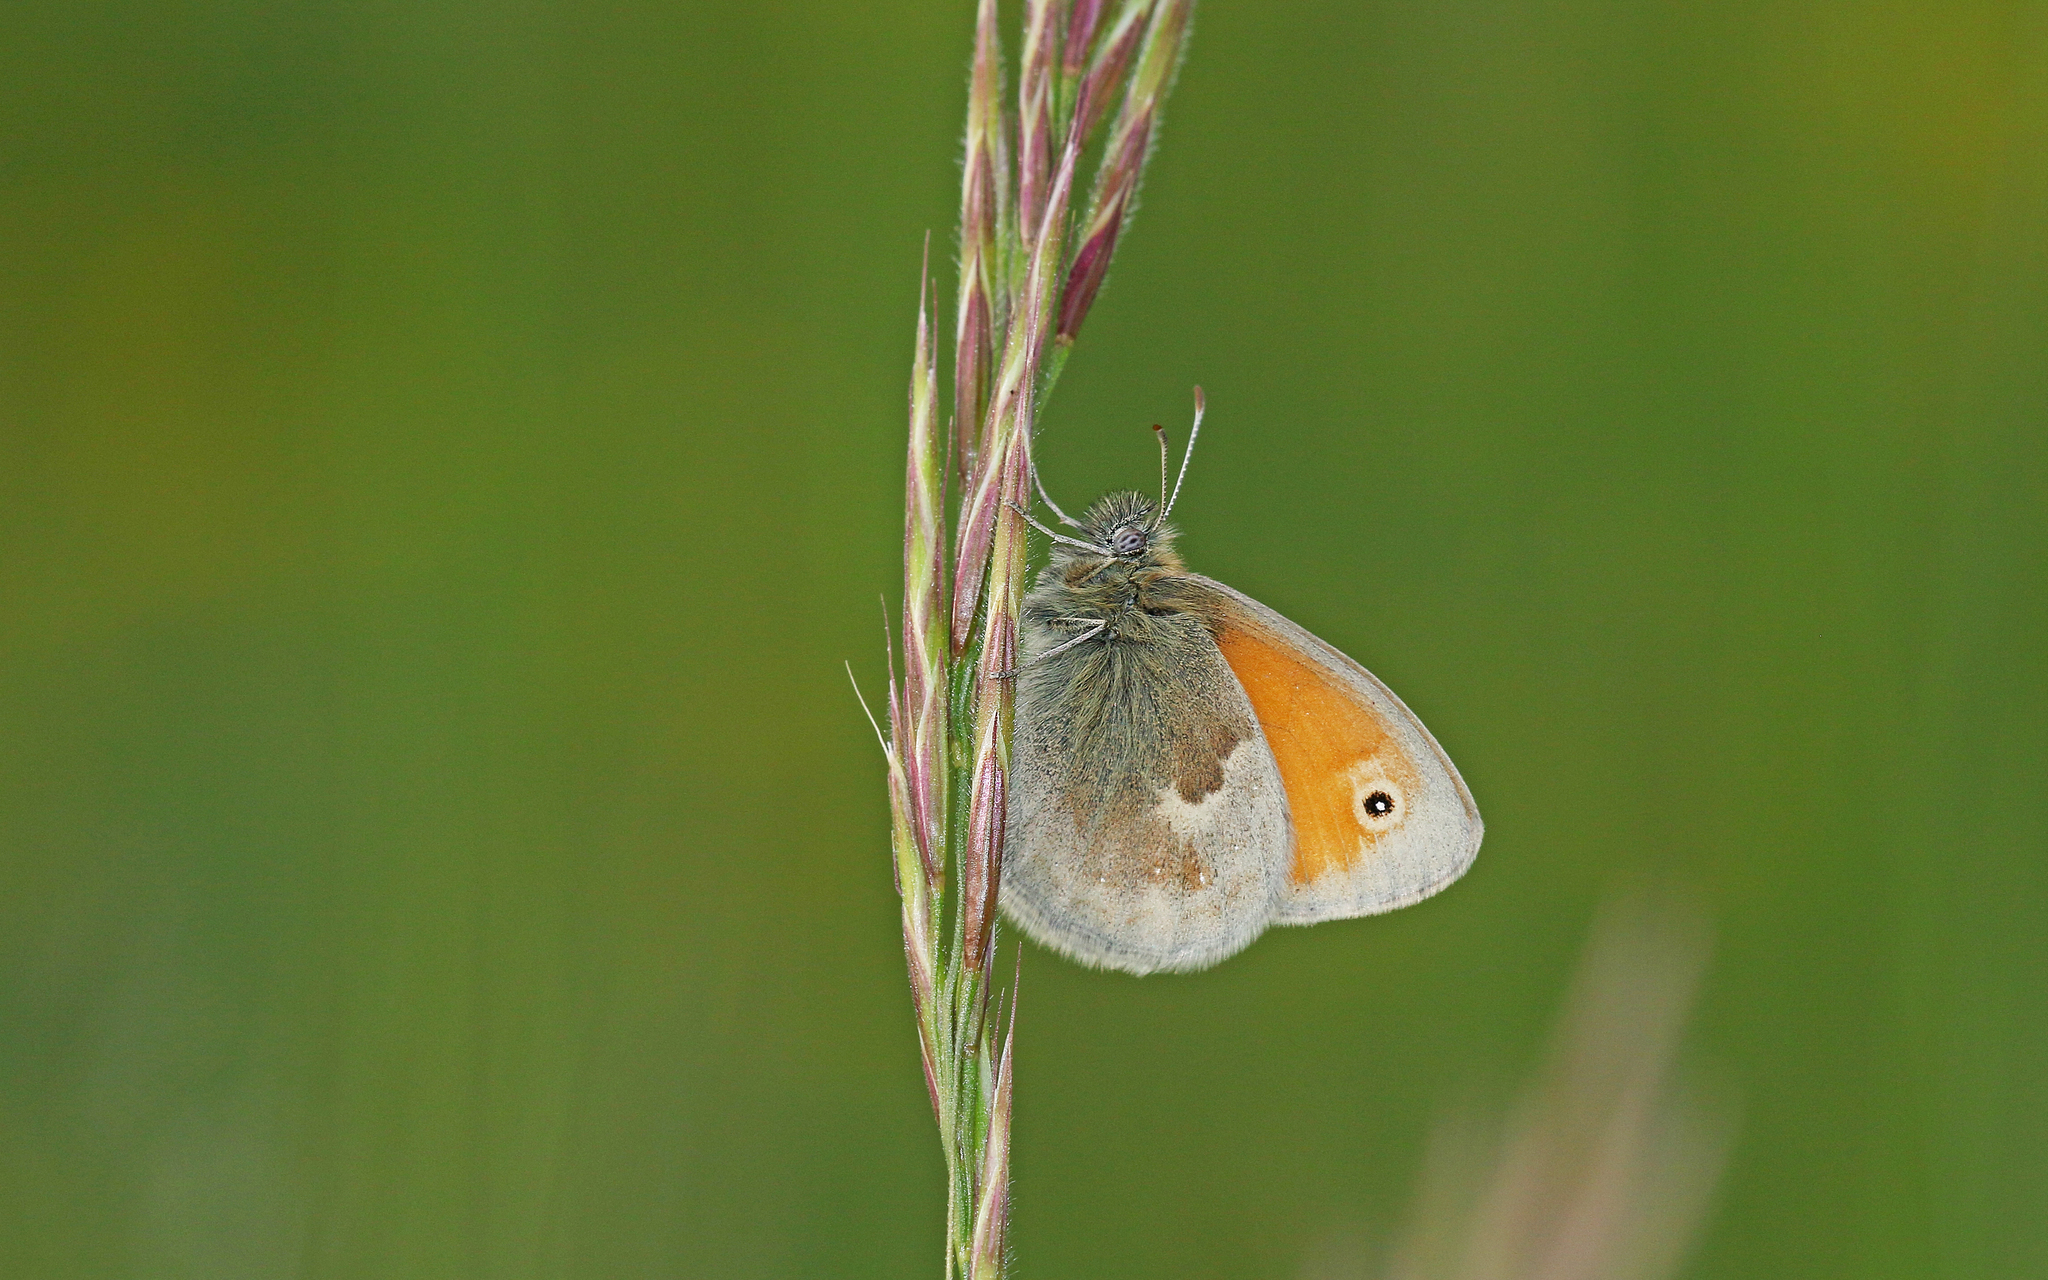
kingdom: Animalia
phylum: Arthropoda
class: Insecta
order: Lepidoptera
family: Nymphalidae
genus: Coenonympha
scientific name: Coenonympha pamphilus
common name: Small heath
